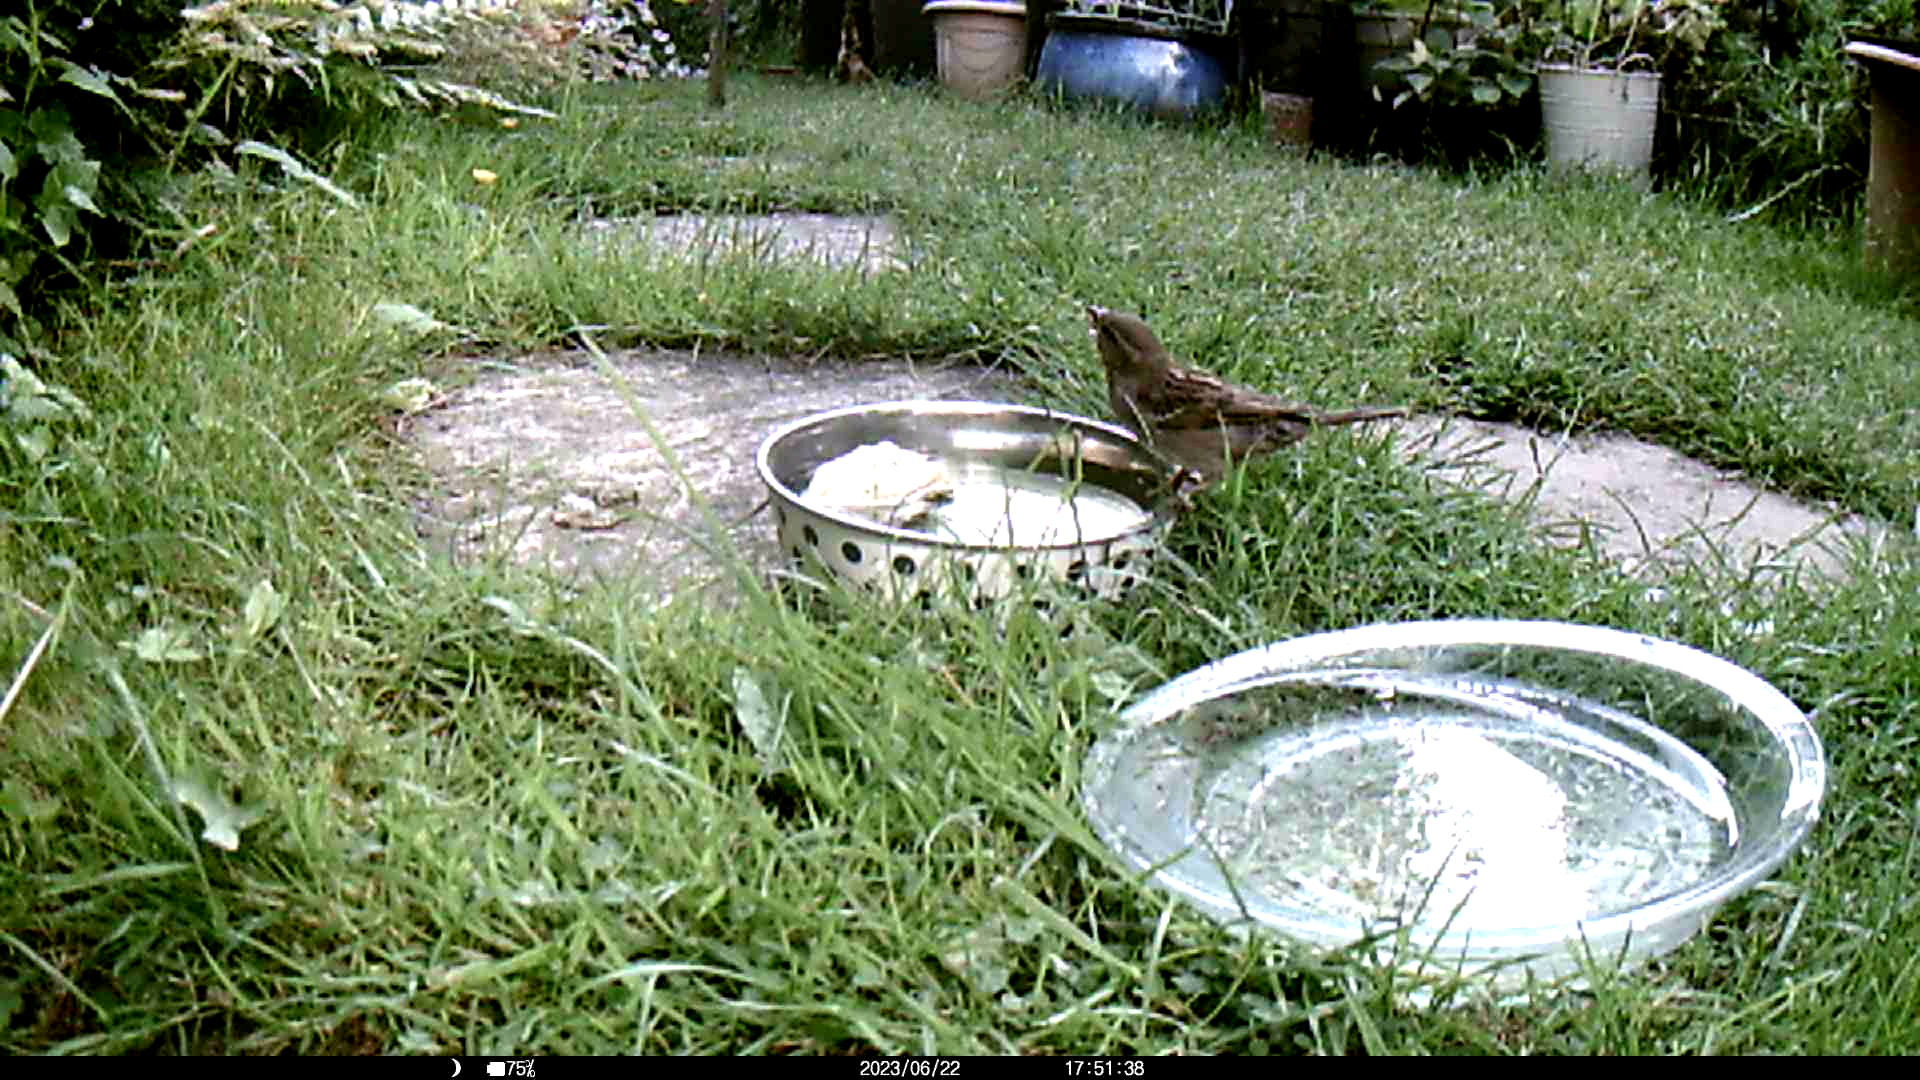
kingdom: Animalia
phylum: Chordata
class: Aves
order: Passeriformes
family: Passeridae
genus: Passer
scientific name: Passer domesticus
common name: House sparrow
